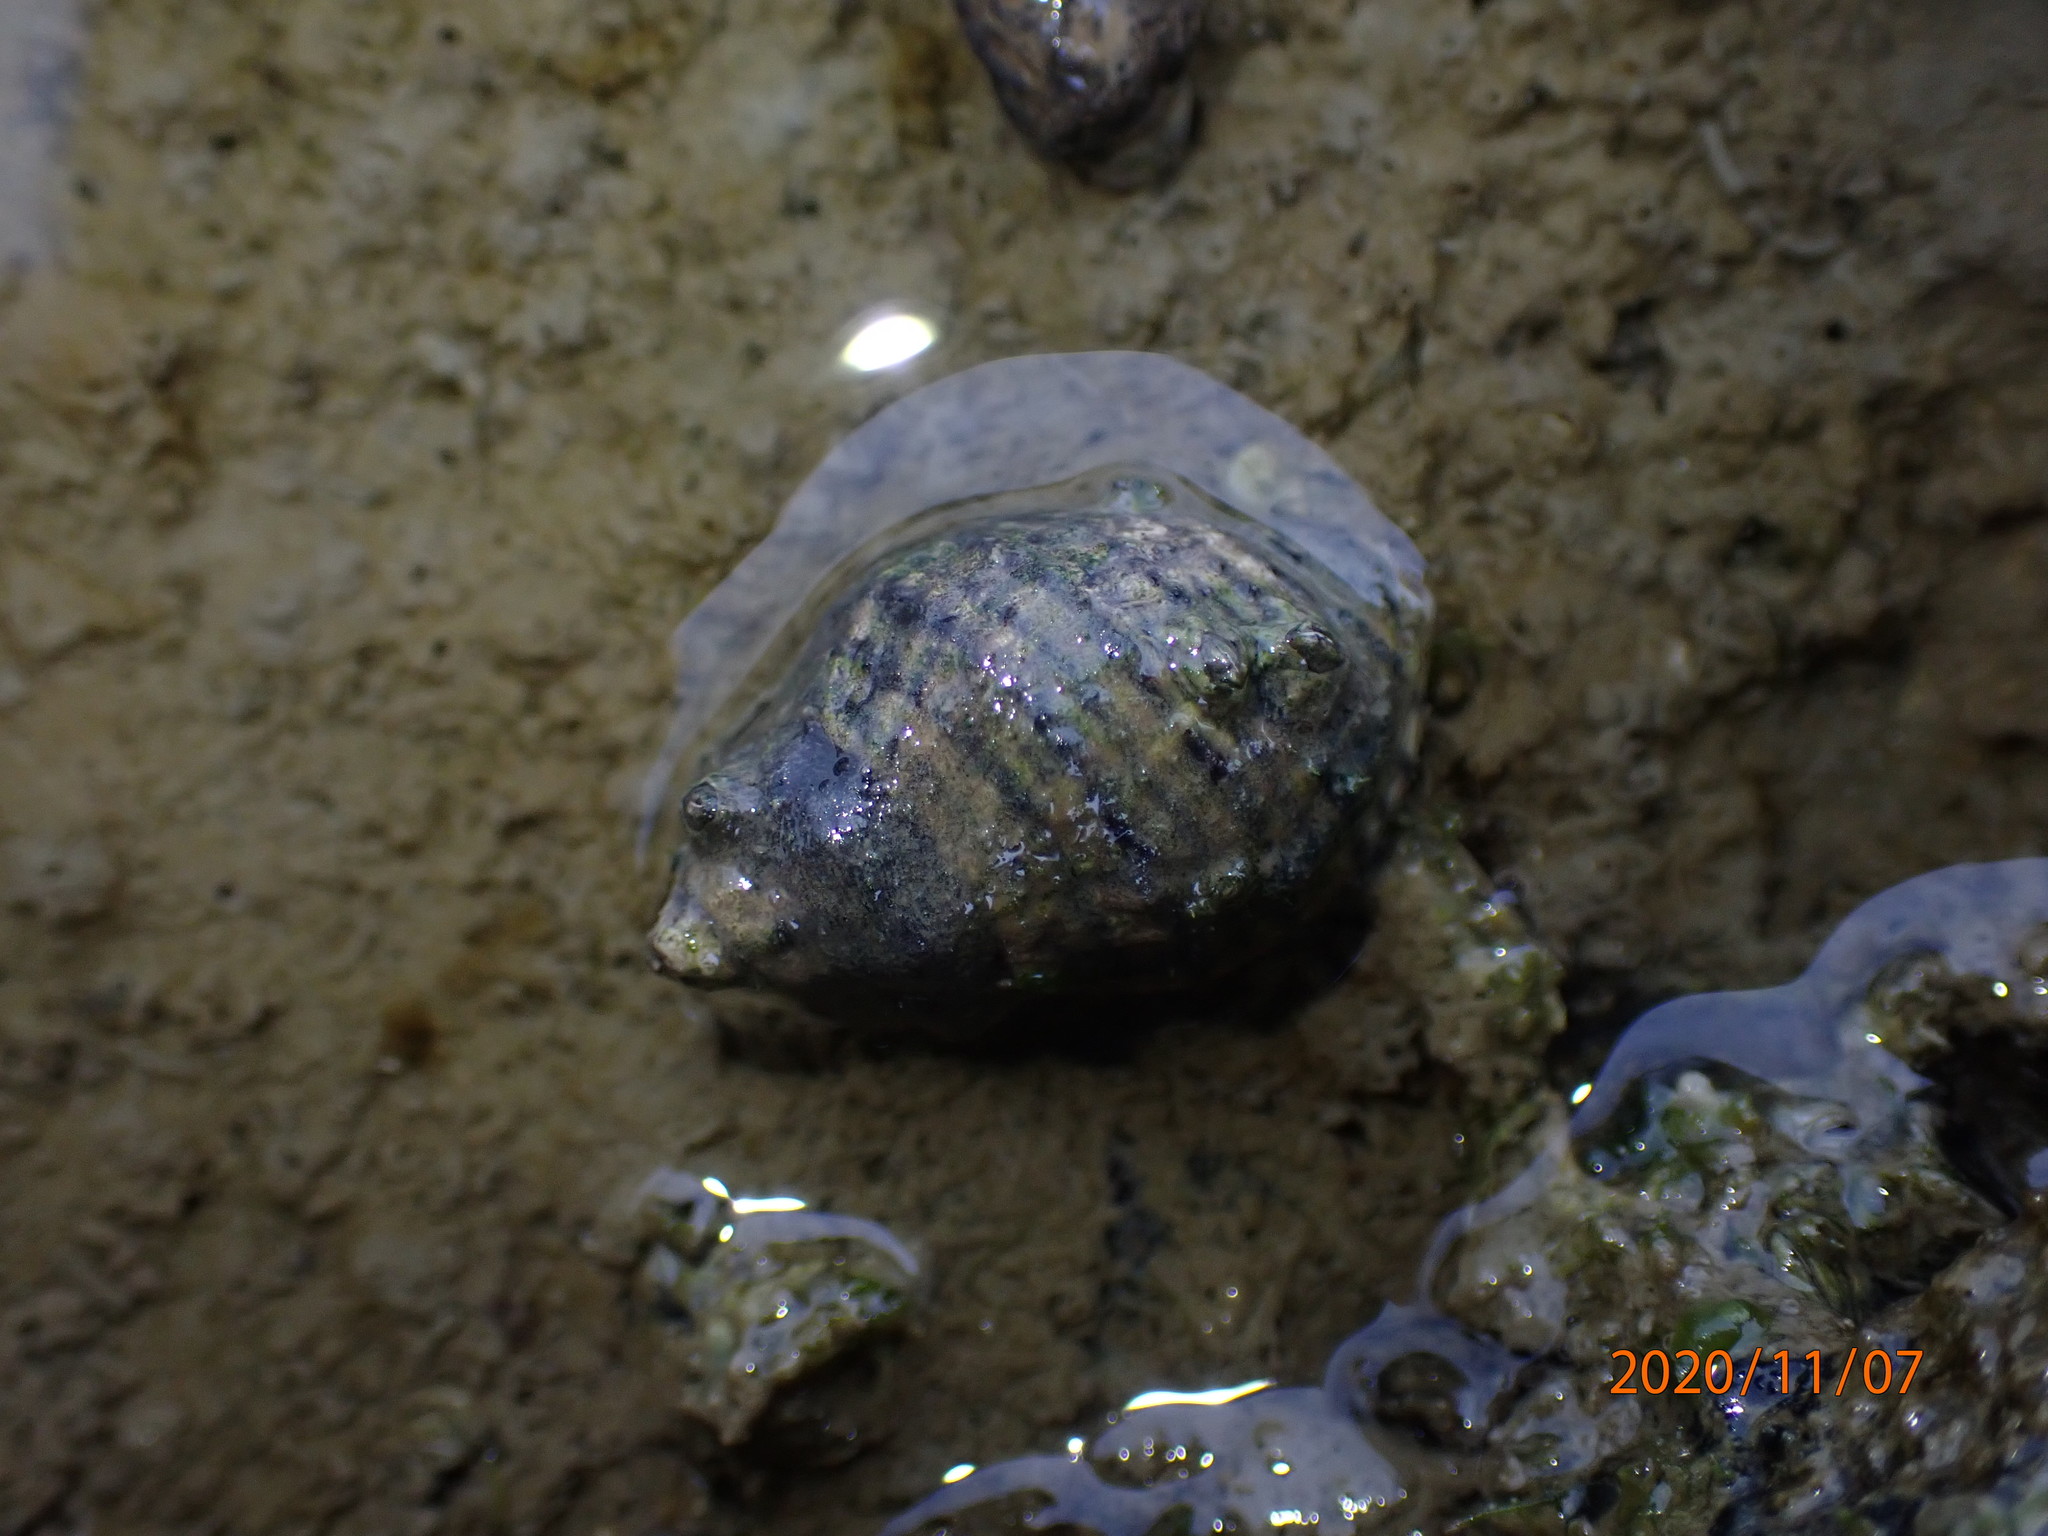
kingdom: Animalia
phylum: Mollusca
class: Gastropoda
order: Neogastropoda
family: Muricidae
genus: Haustrum
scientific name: Haustrum albomarginatum
